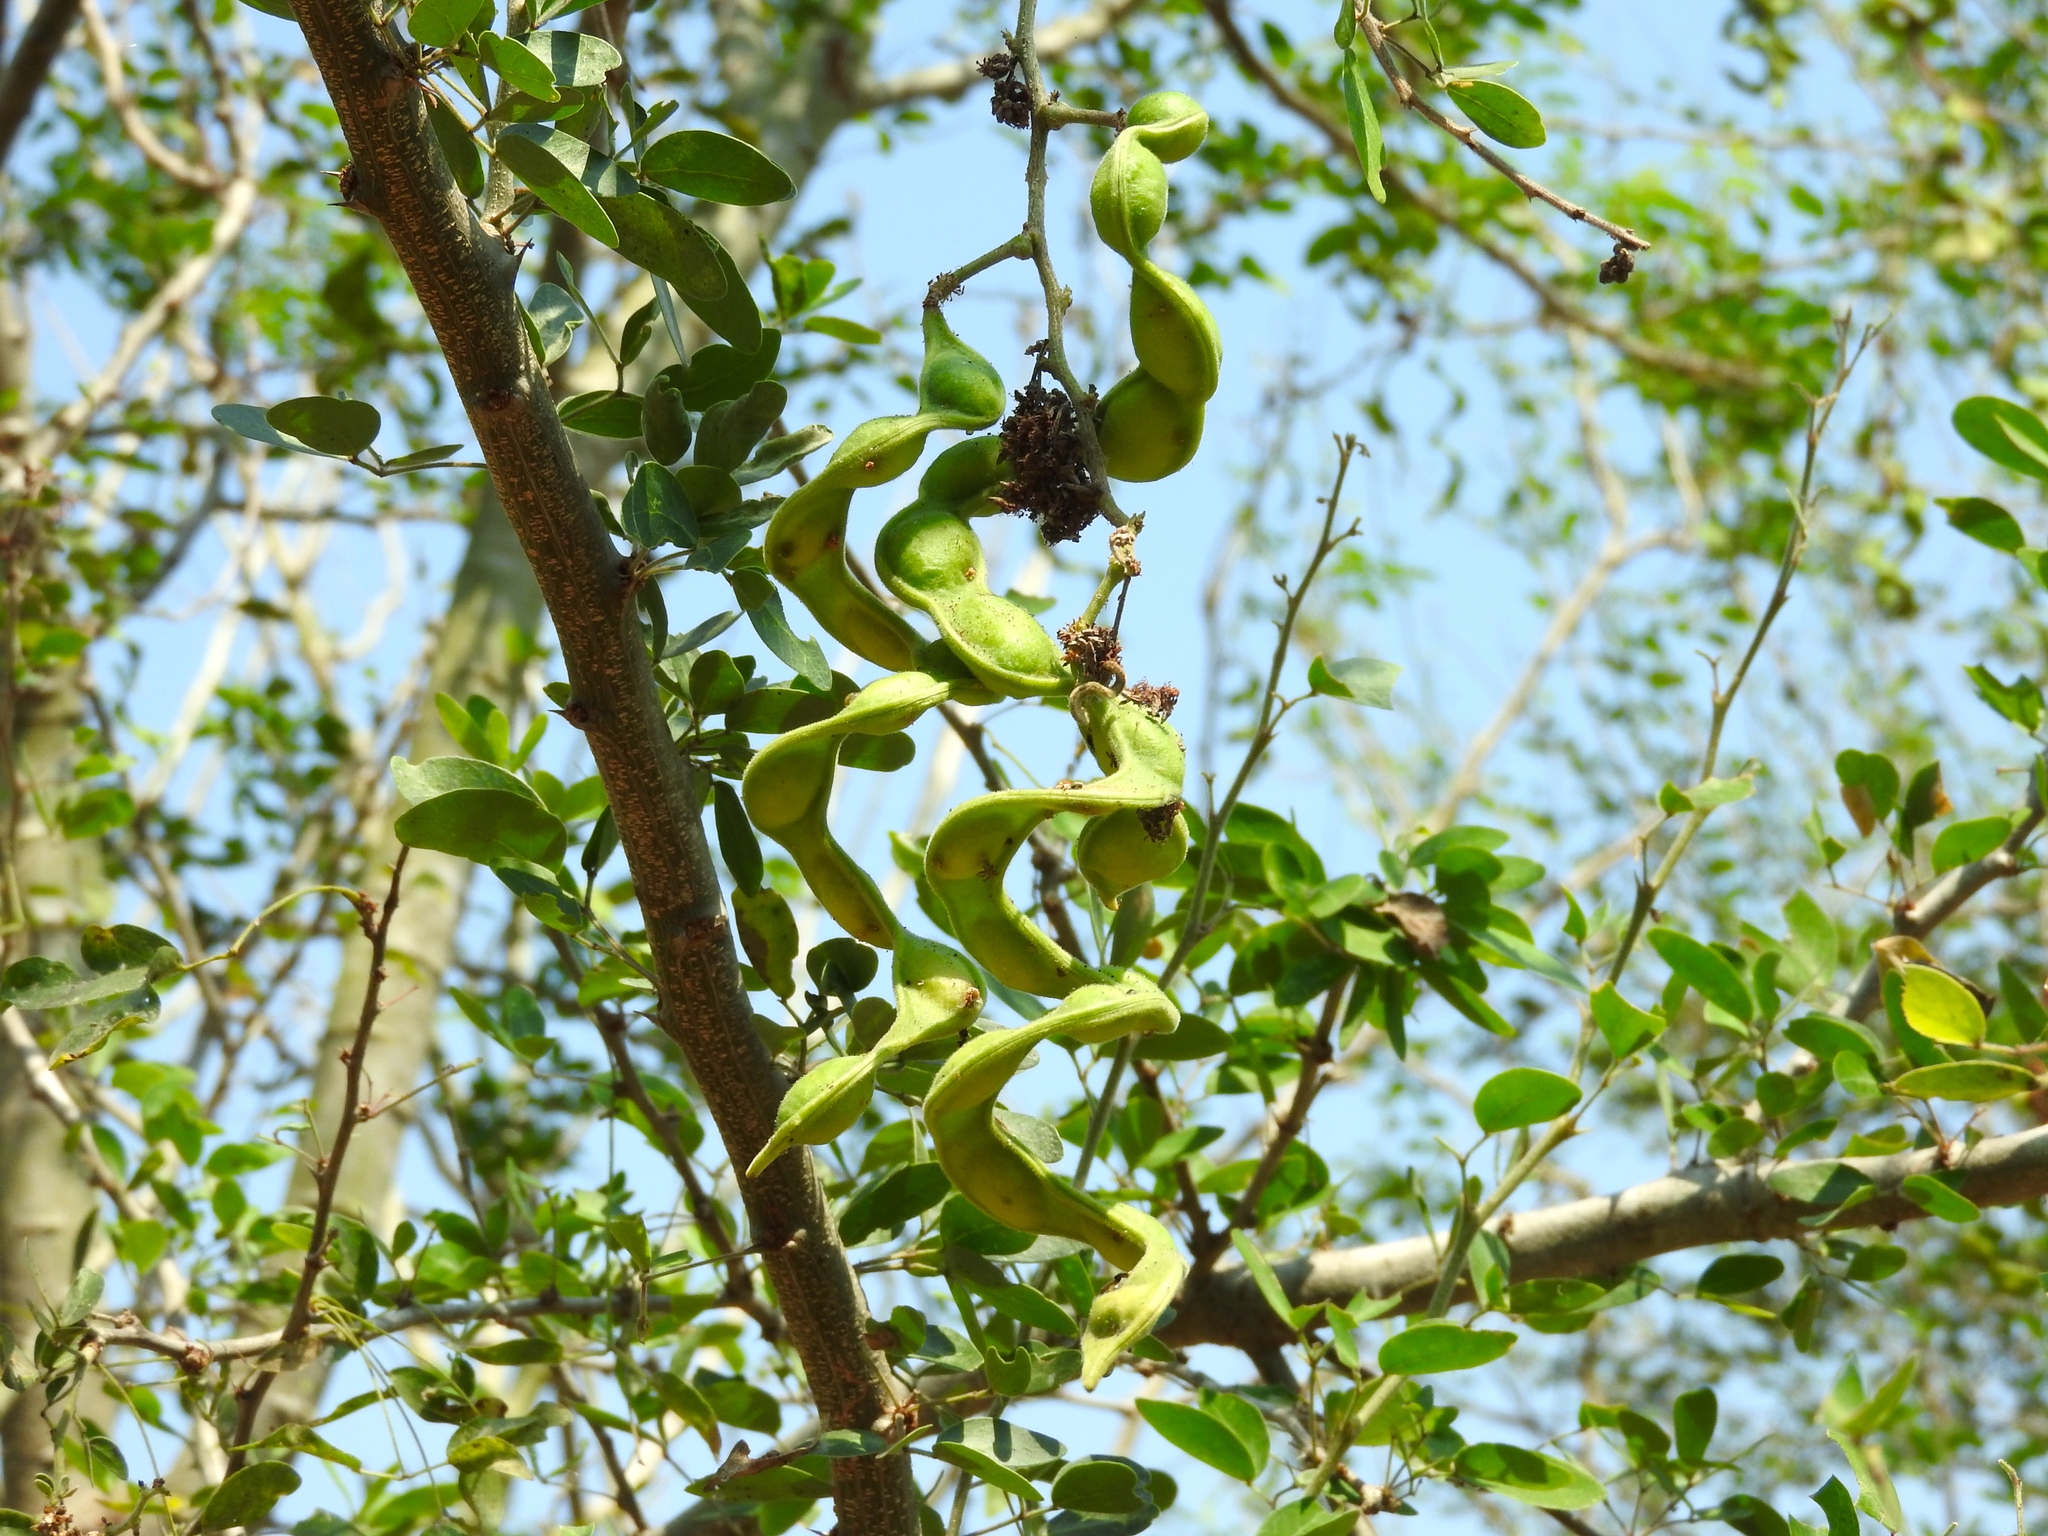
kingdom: Plantae
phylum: Tracheophyta
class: Magnoliopsida
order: Fabales
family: Fabaceae
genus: Pithecellobium
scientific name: Pithecellobium dulce
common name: Monkeypod
